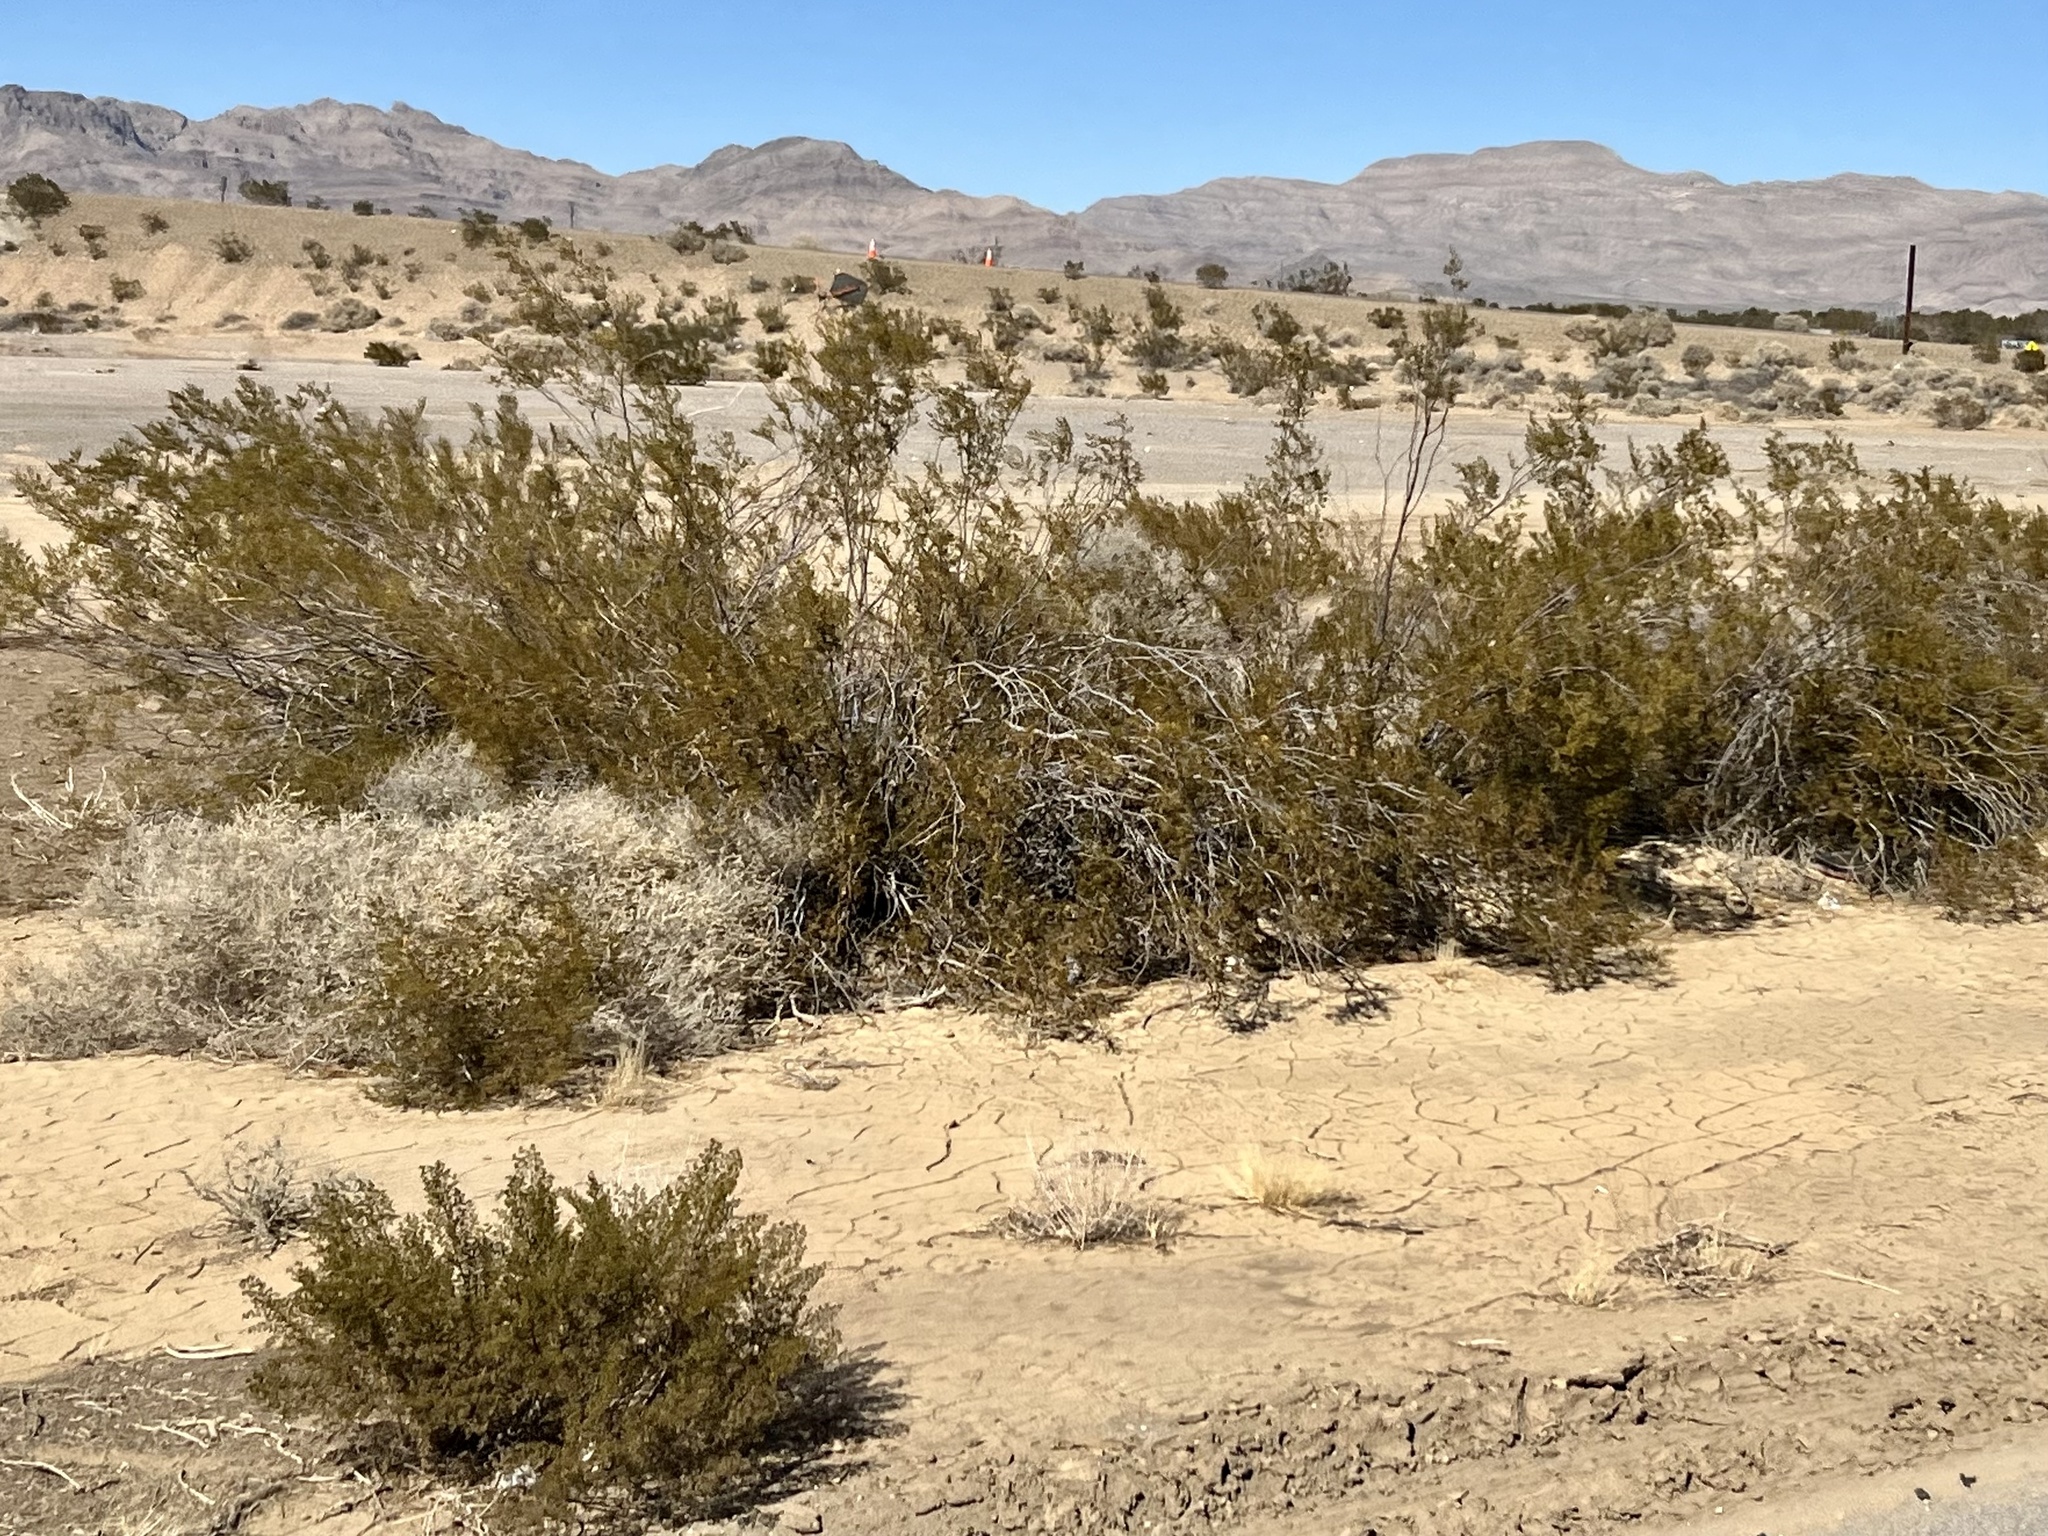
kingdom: Plantae
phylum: Tracheophyta
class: Magnoliopsida
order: Zygophyllales
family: Zygophyllaceae
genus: Larrea
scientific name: Larrea tridentata
